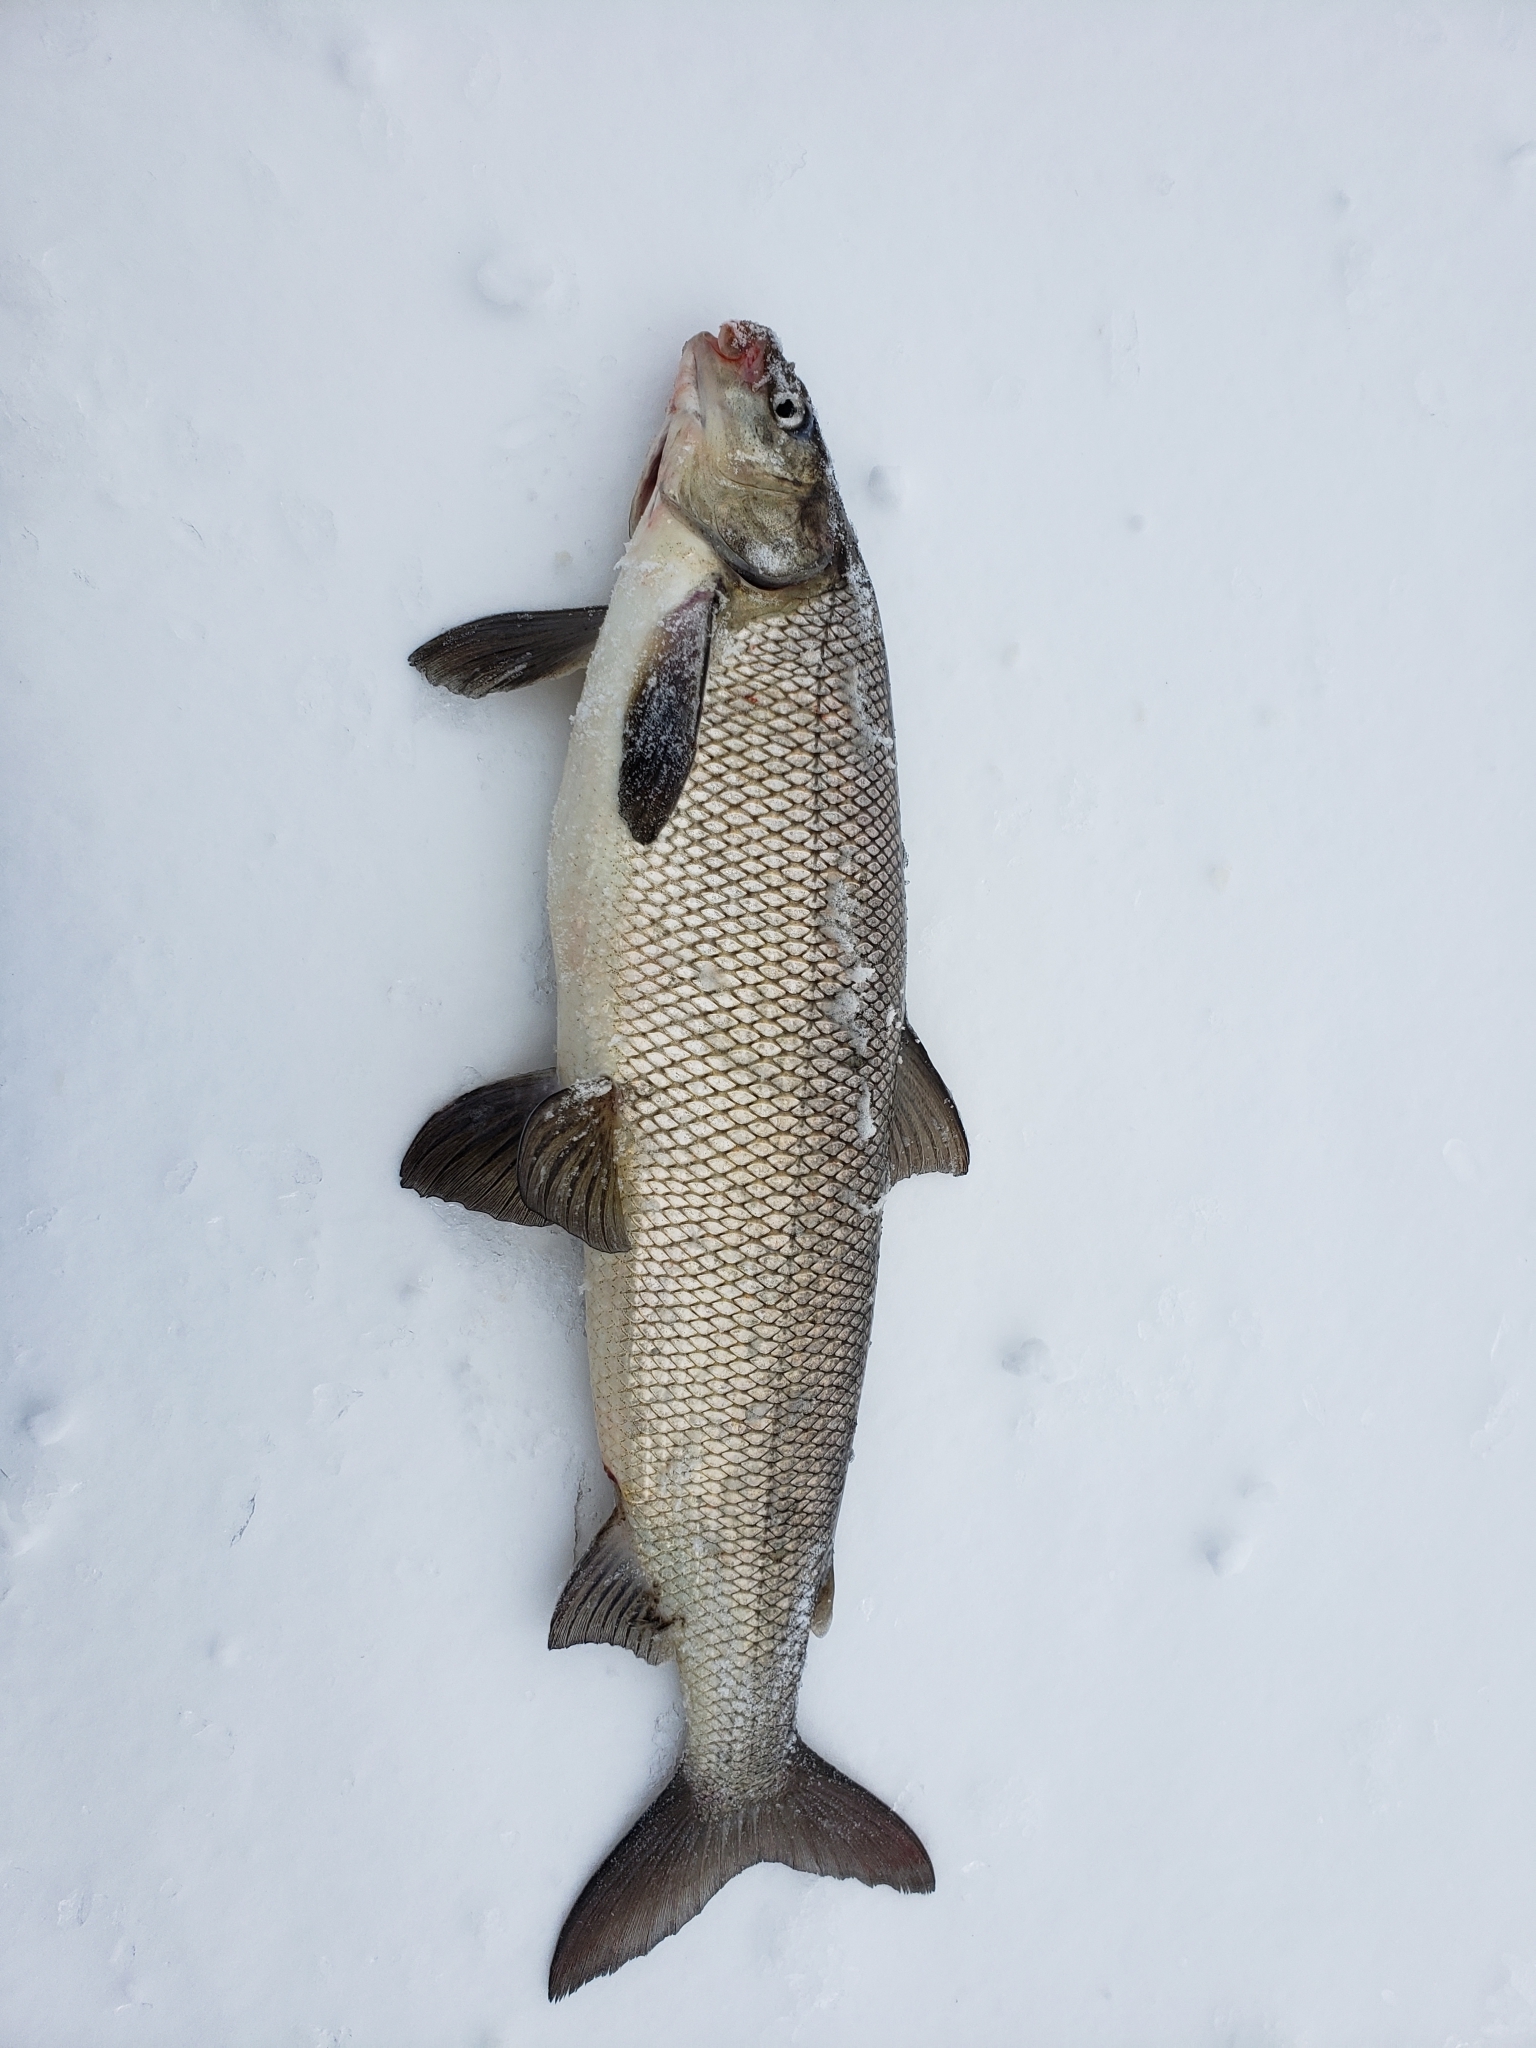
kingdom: Animalia
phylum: Chordata
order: Salmoniformes
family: Salmonidae
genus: Coregonus
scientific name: Coregonus clupeaformis
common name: Lake whitefish
